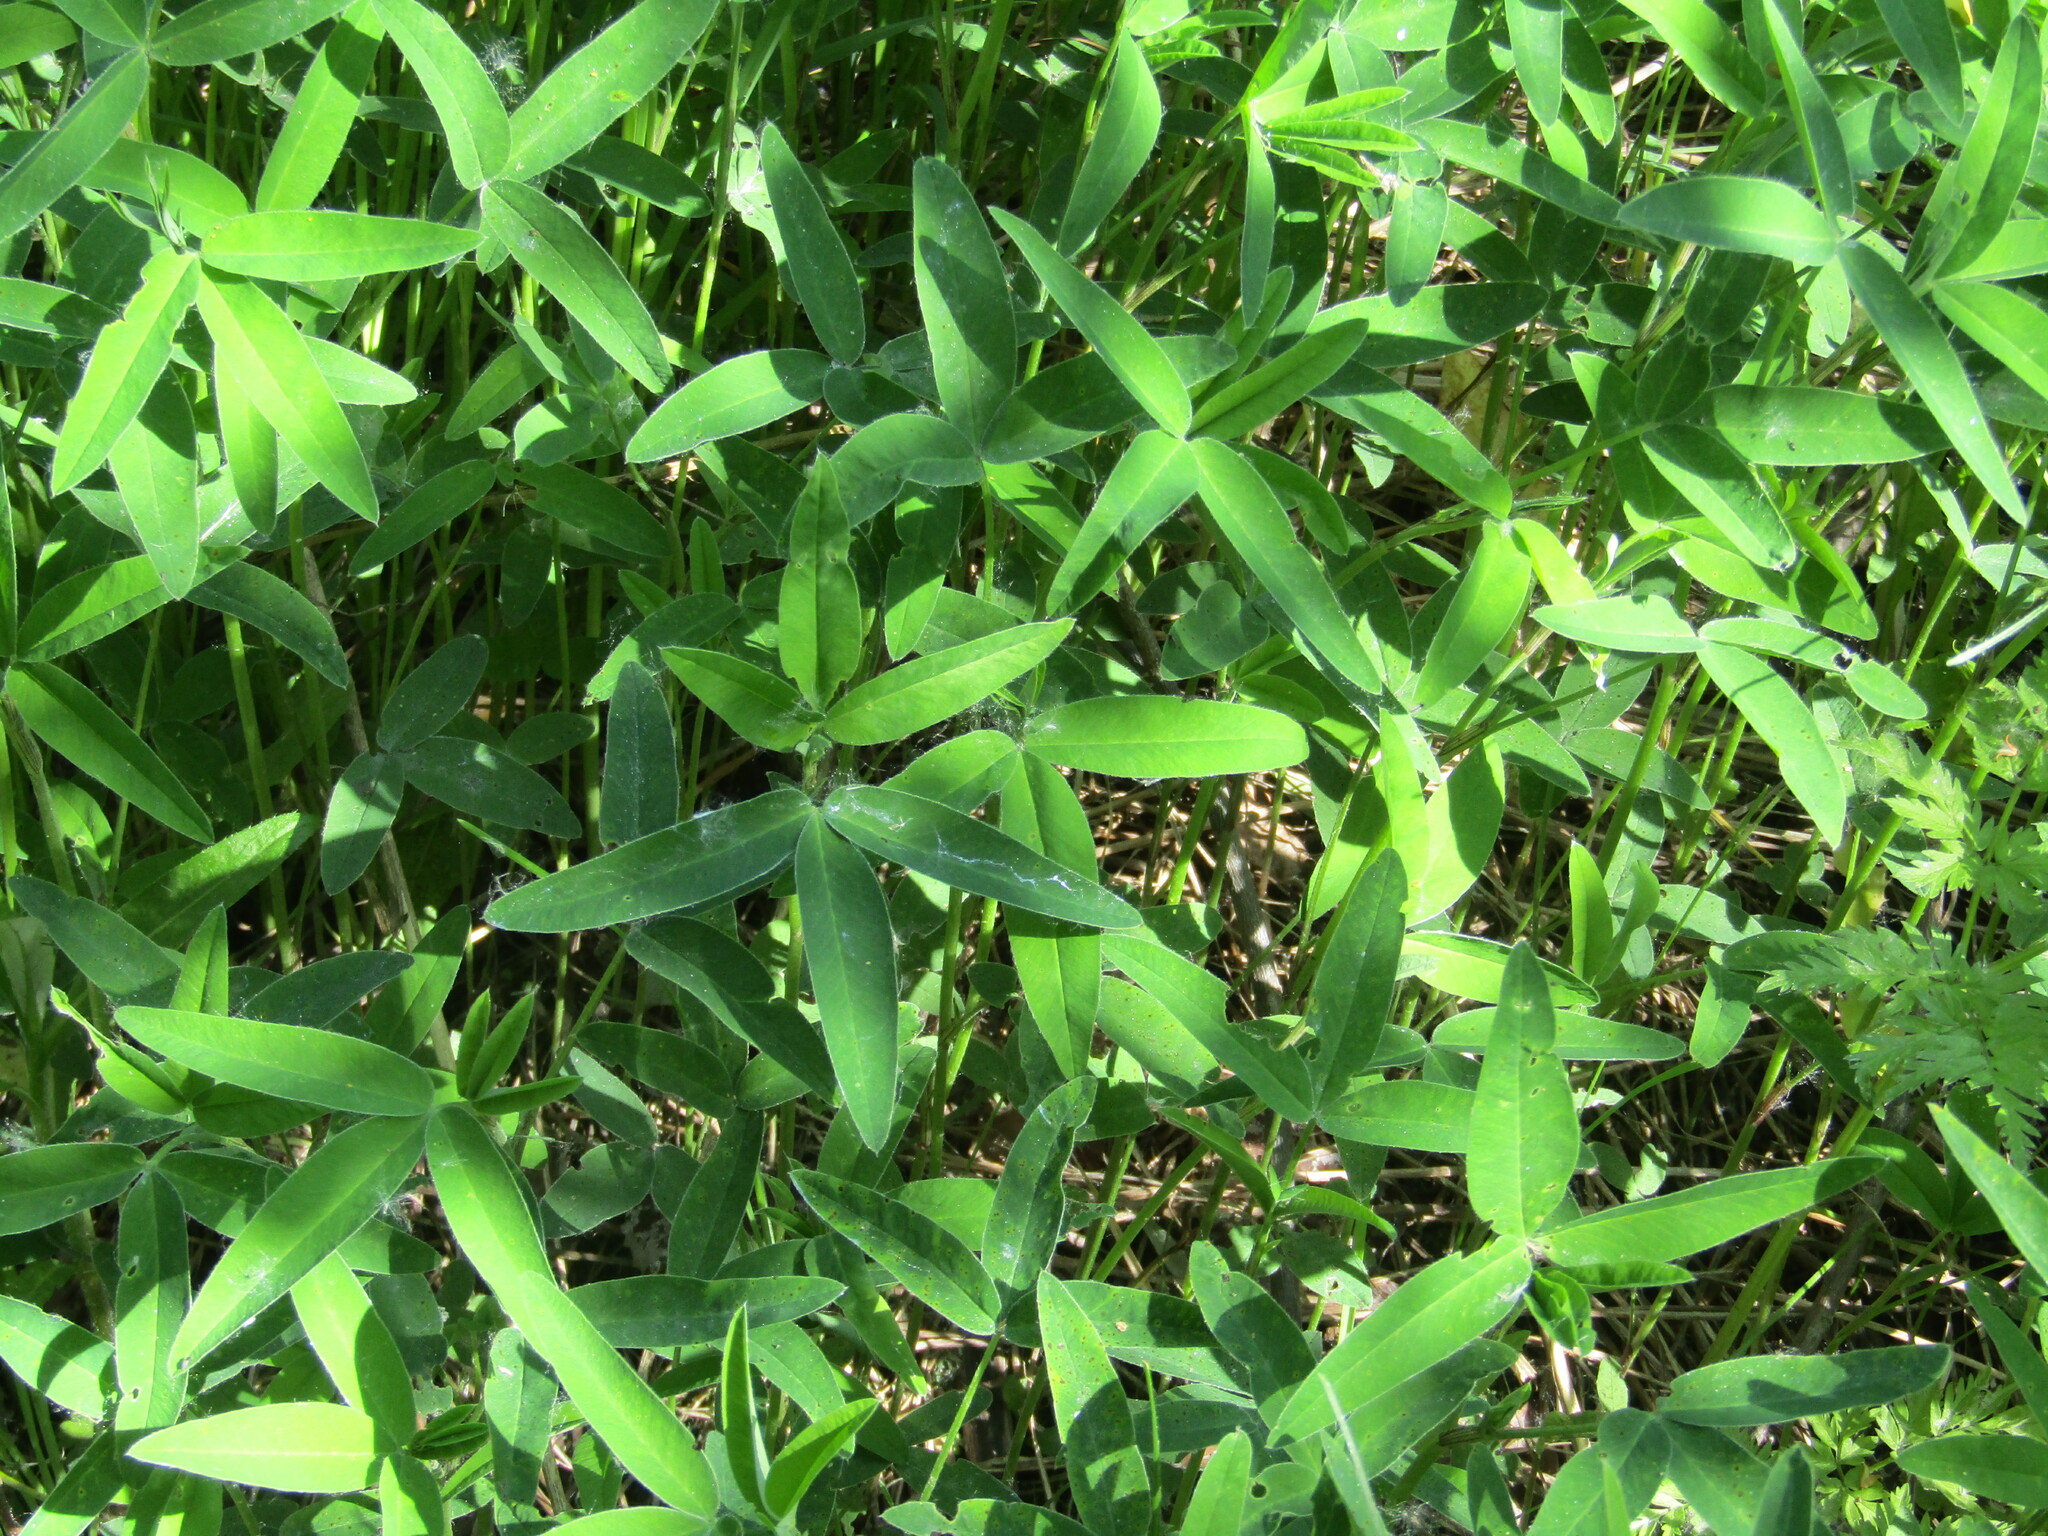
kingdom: Plantae
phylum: Tracheophyta
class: Magnoliopsida
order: Fabales
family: Fabaceae
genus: Trifolium
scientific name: Trifolium medium
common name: Zigzag clover
